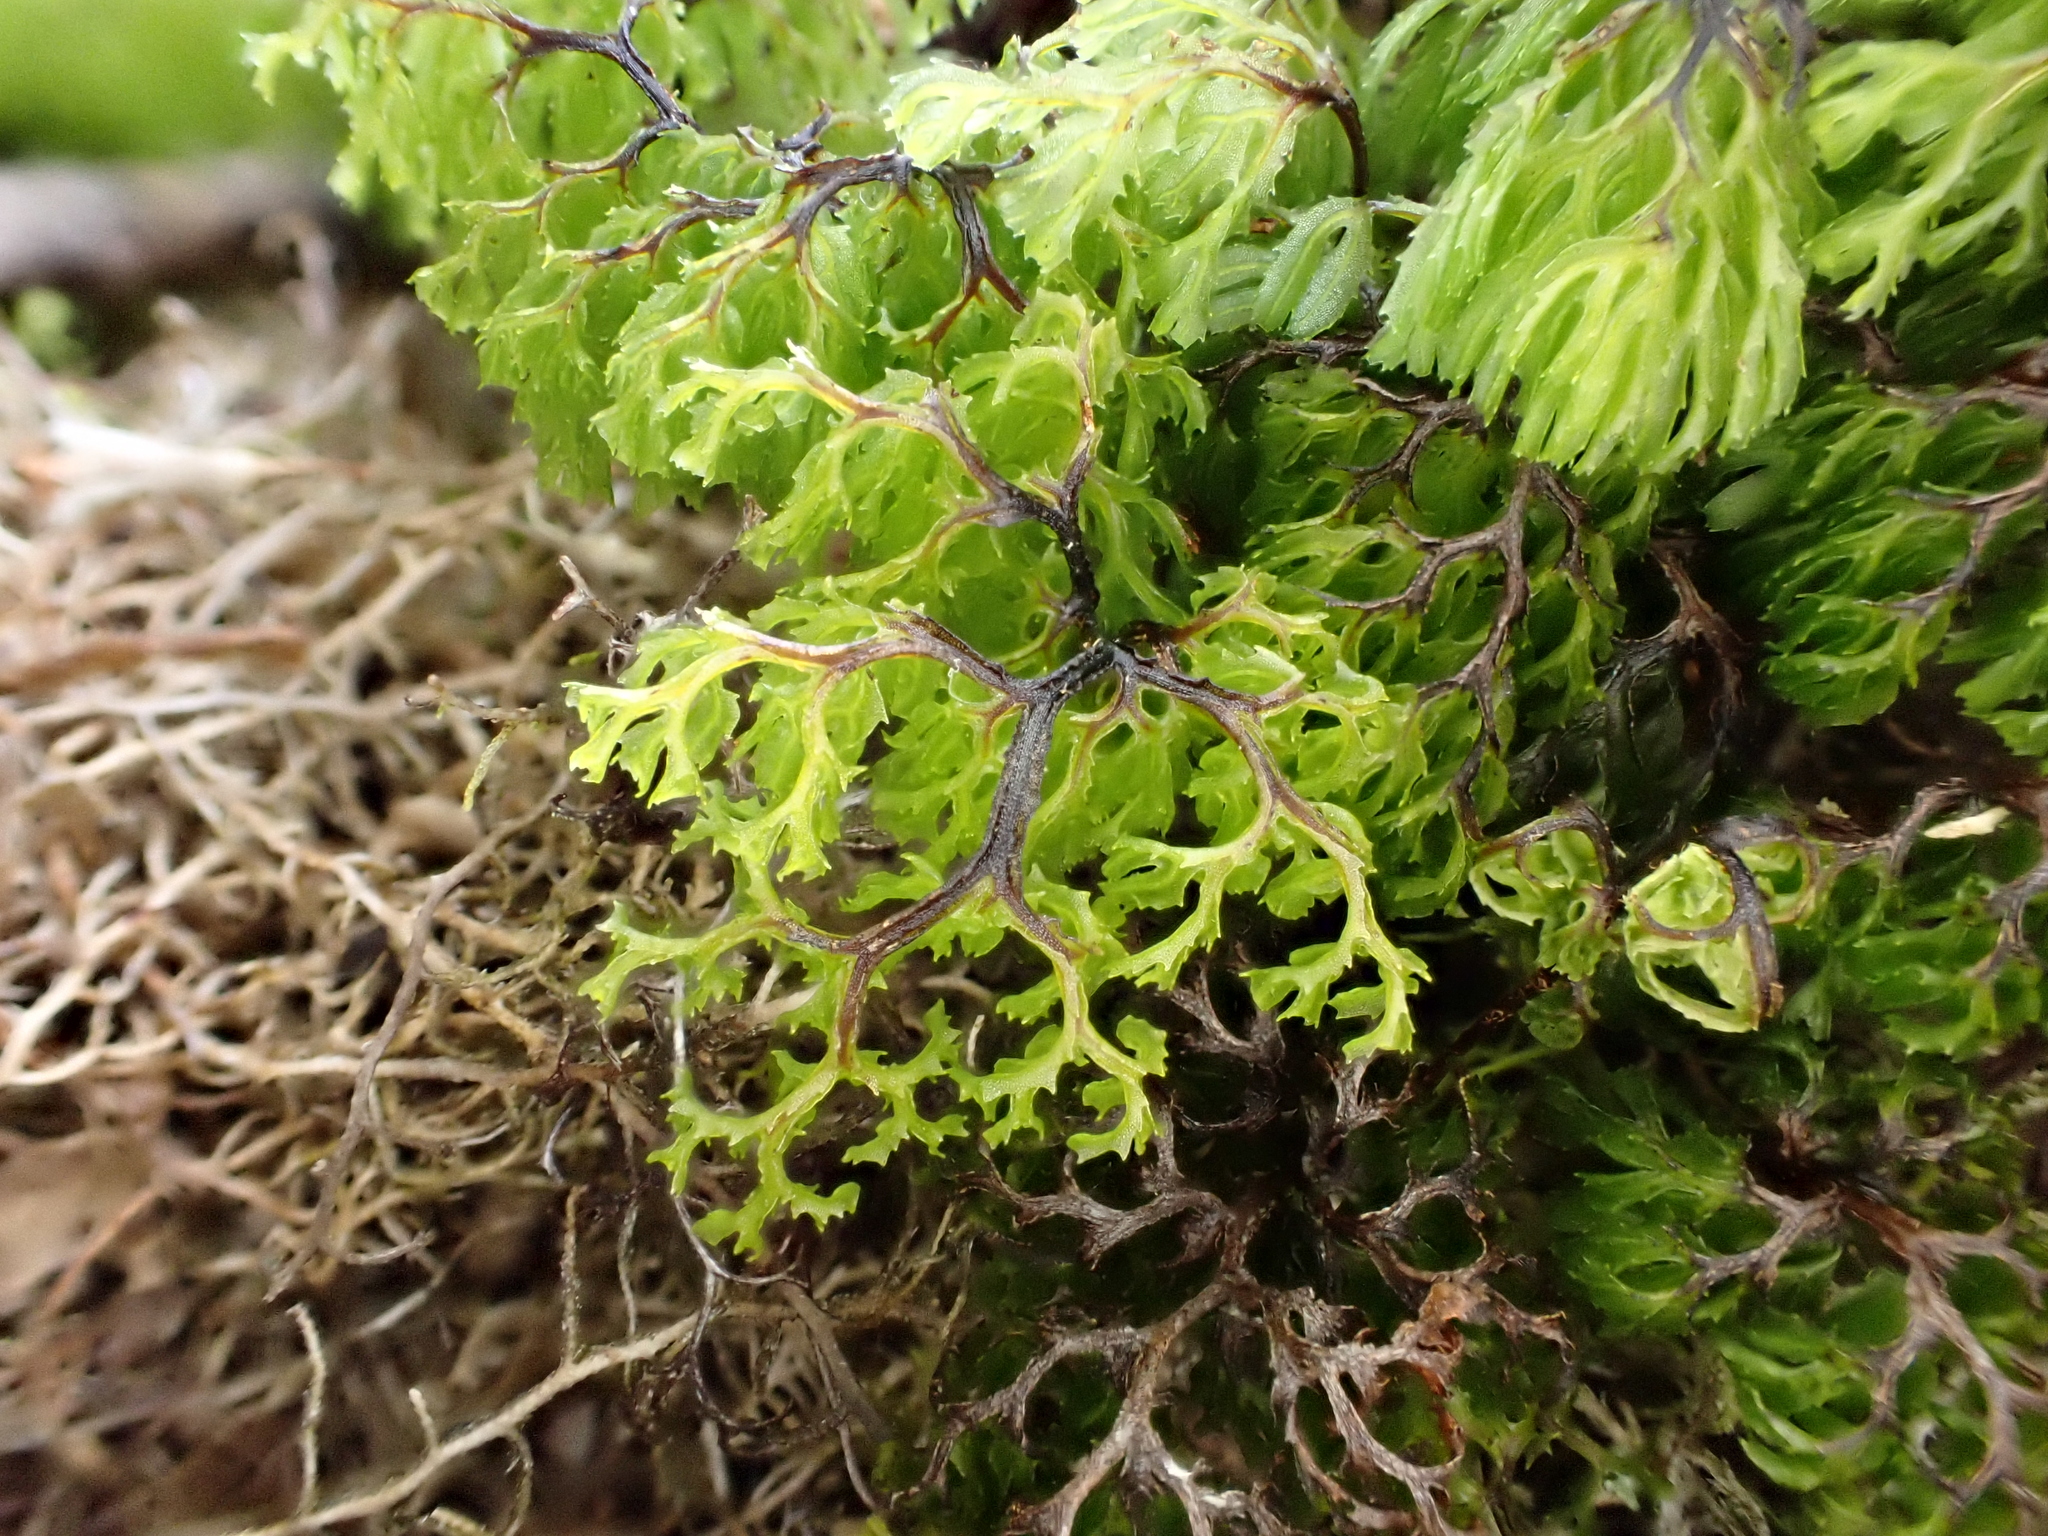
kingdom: Plantae
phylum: Tracheophyta
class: Polypodiopsida
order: Hymenophyllales
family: Hymenophyllaceae
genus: Hymenophyllum
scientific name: Hymenophyllum multifidum
